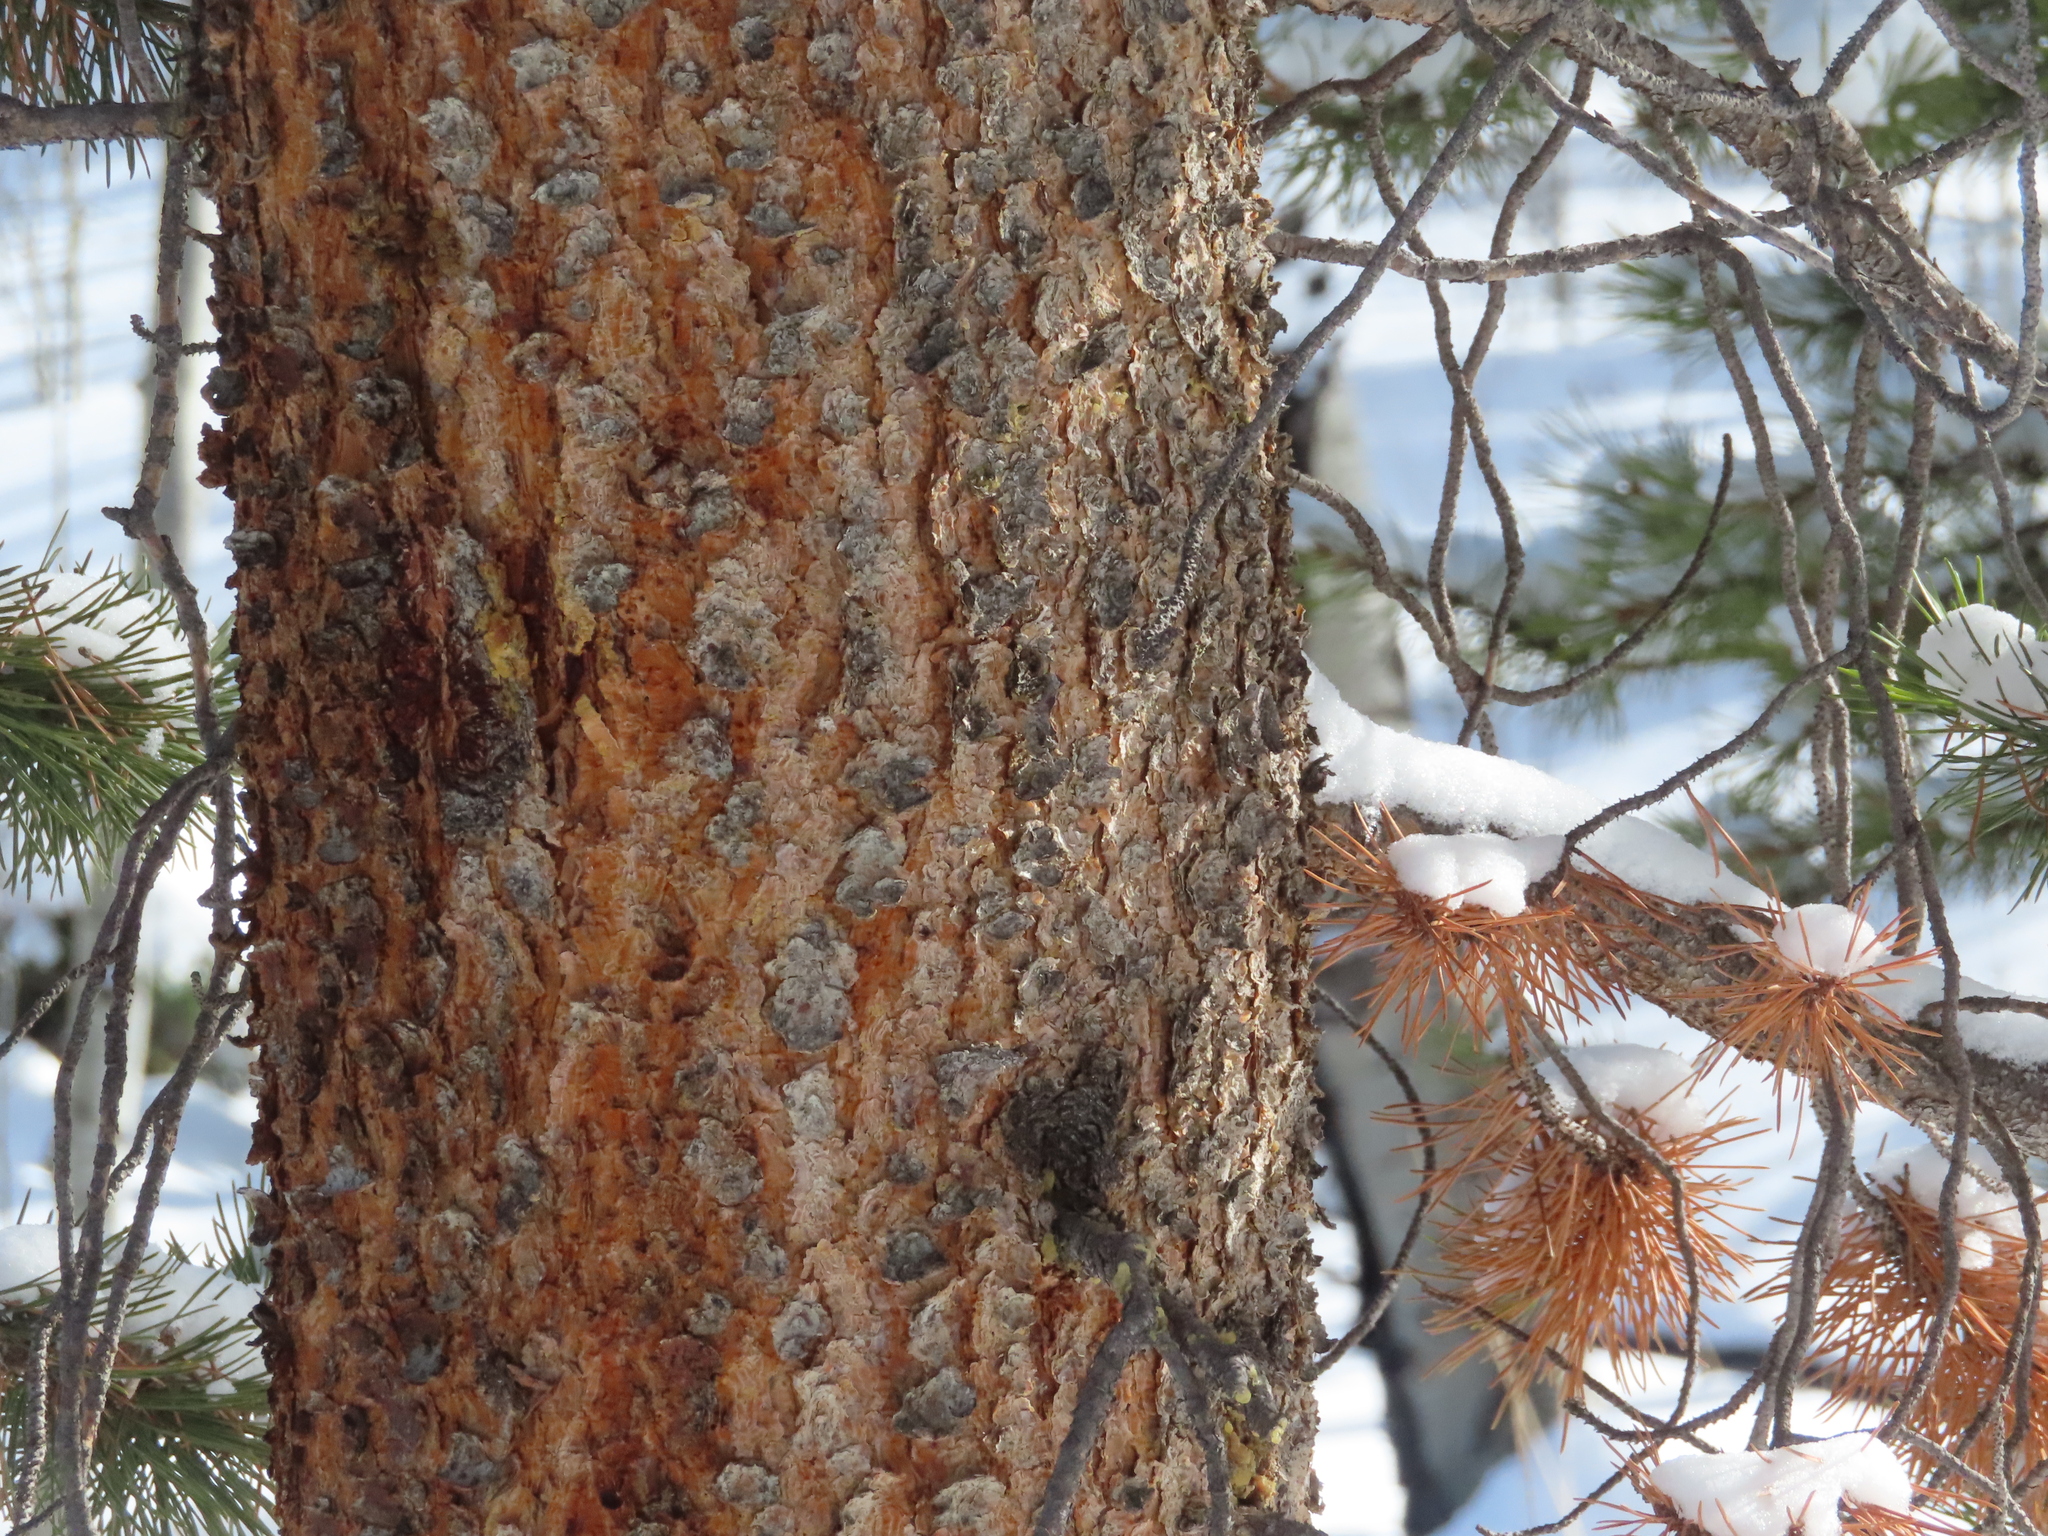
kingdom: Plantae
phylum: Tracheophyta
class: Pinopsida
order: Pinales
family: Pinaceae
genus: Pinus
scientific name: Pinus contorta
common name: Lodgepole pine
